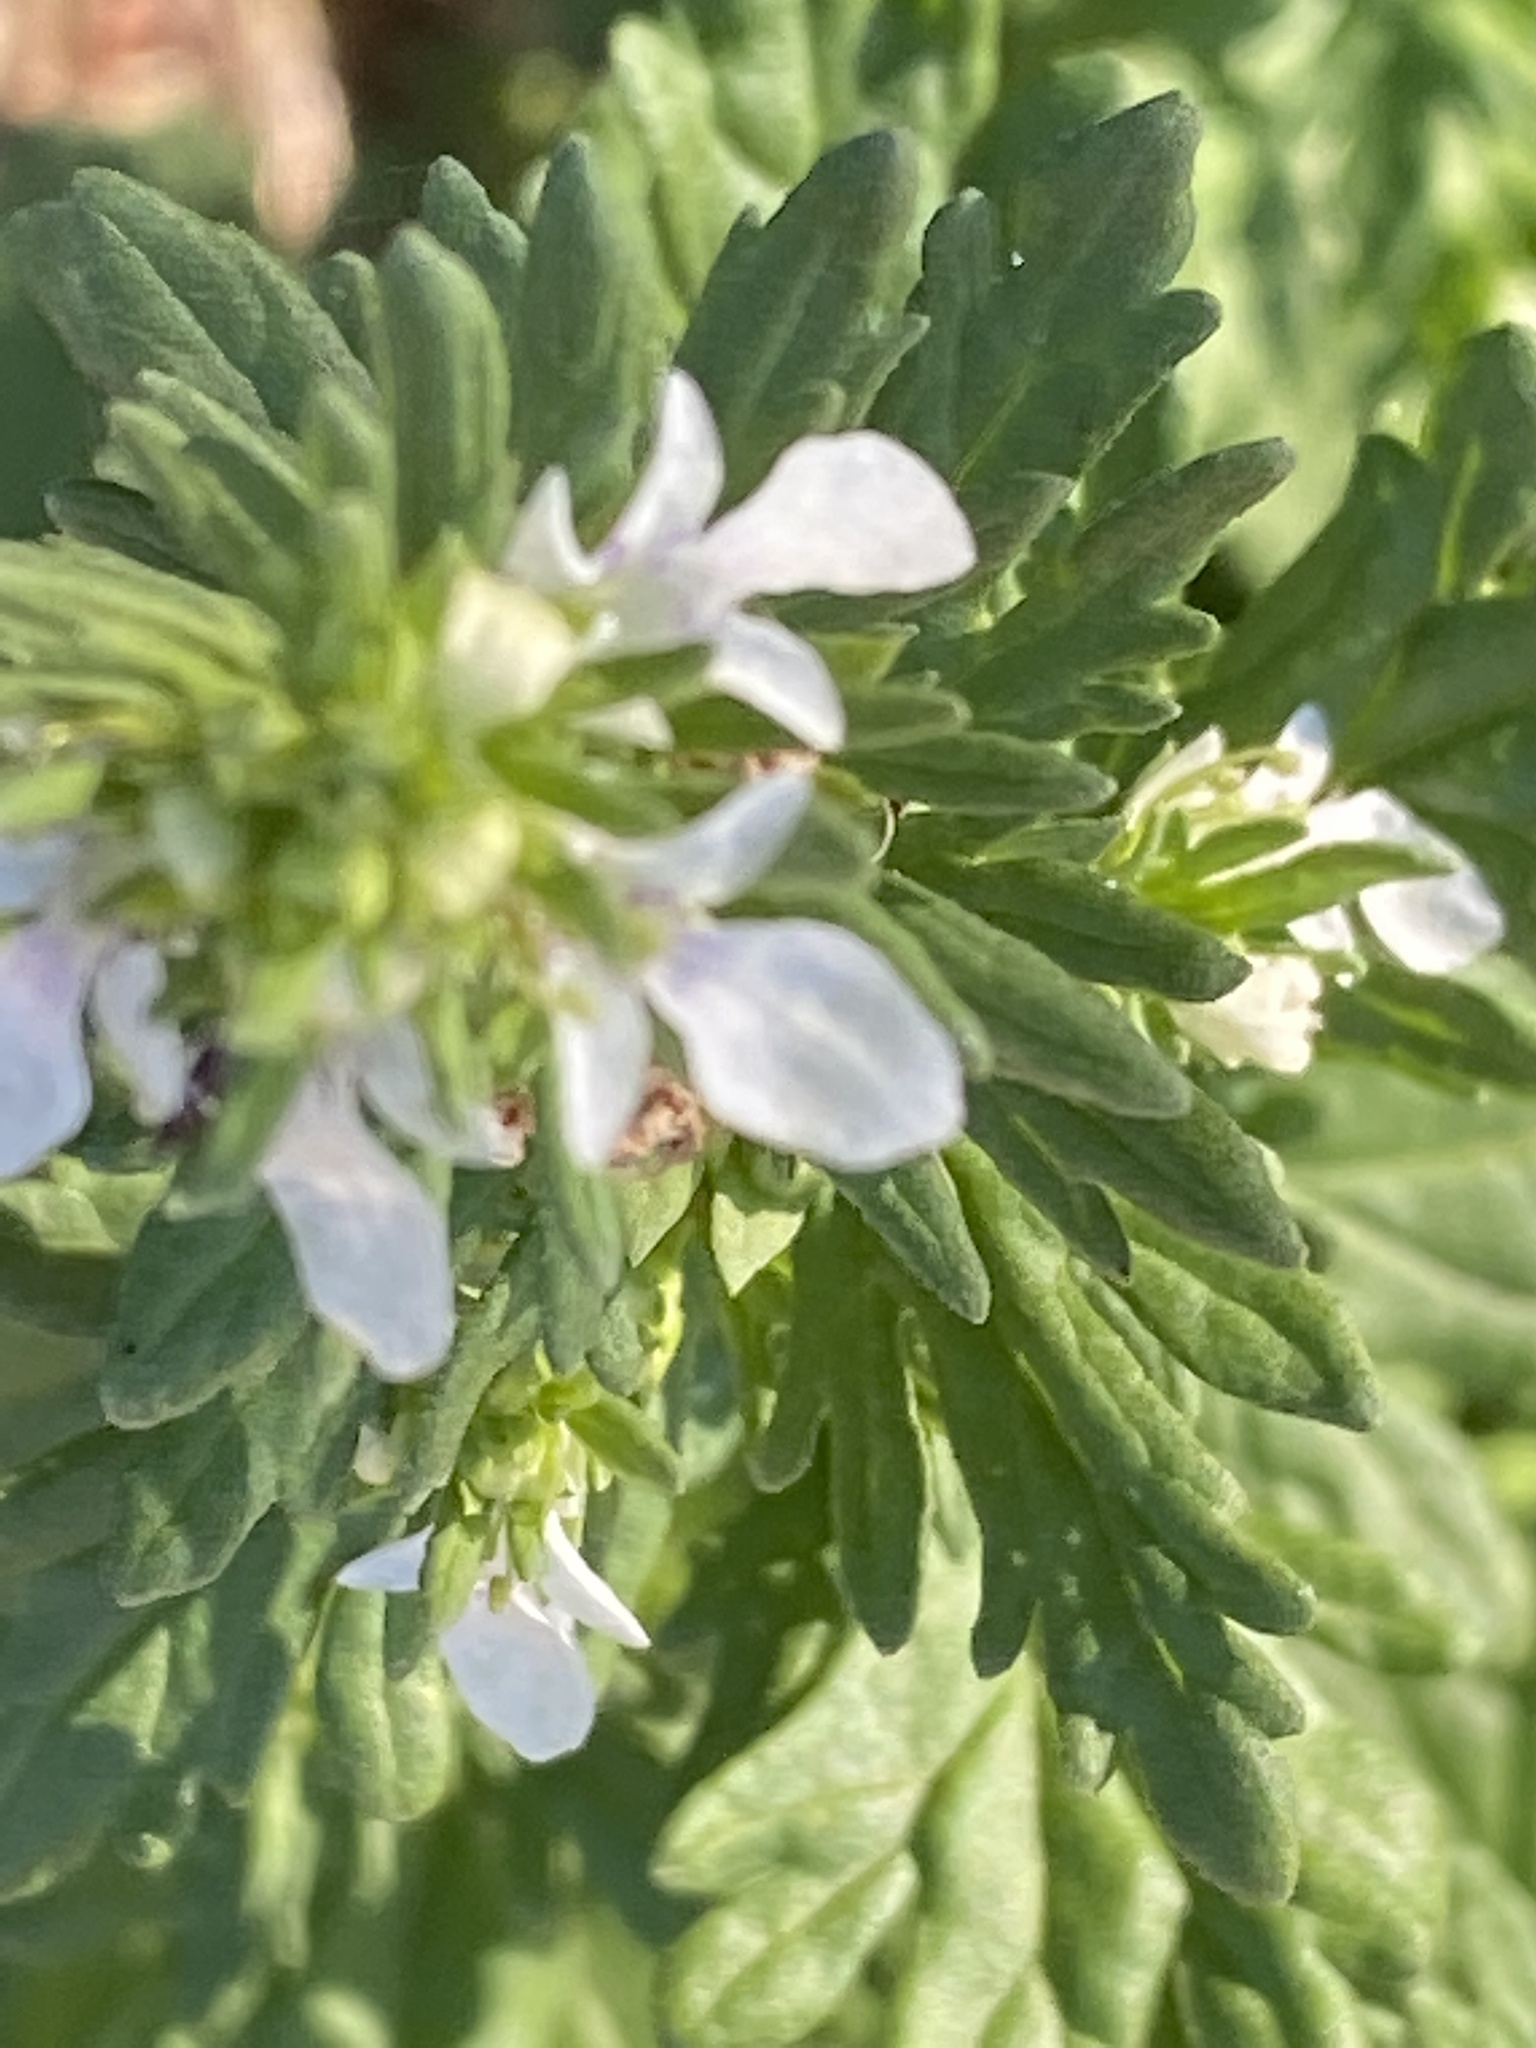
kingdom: Plantae
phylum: Tracheophyta
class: Magnoliopsida
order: Lamiales
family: Lamiaceae
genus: Teucrium
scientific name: Teucrium cubense
